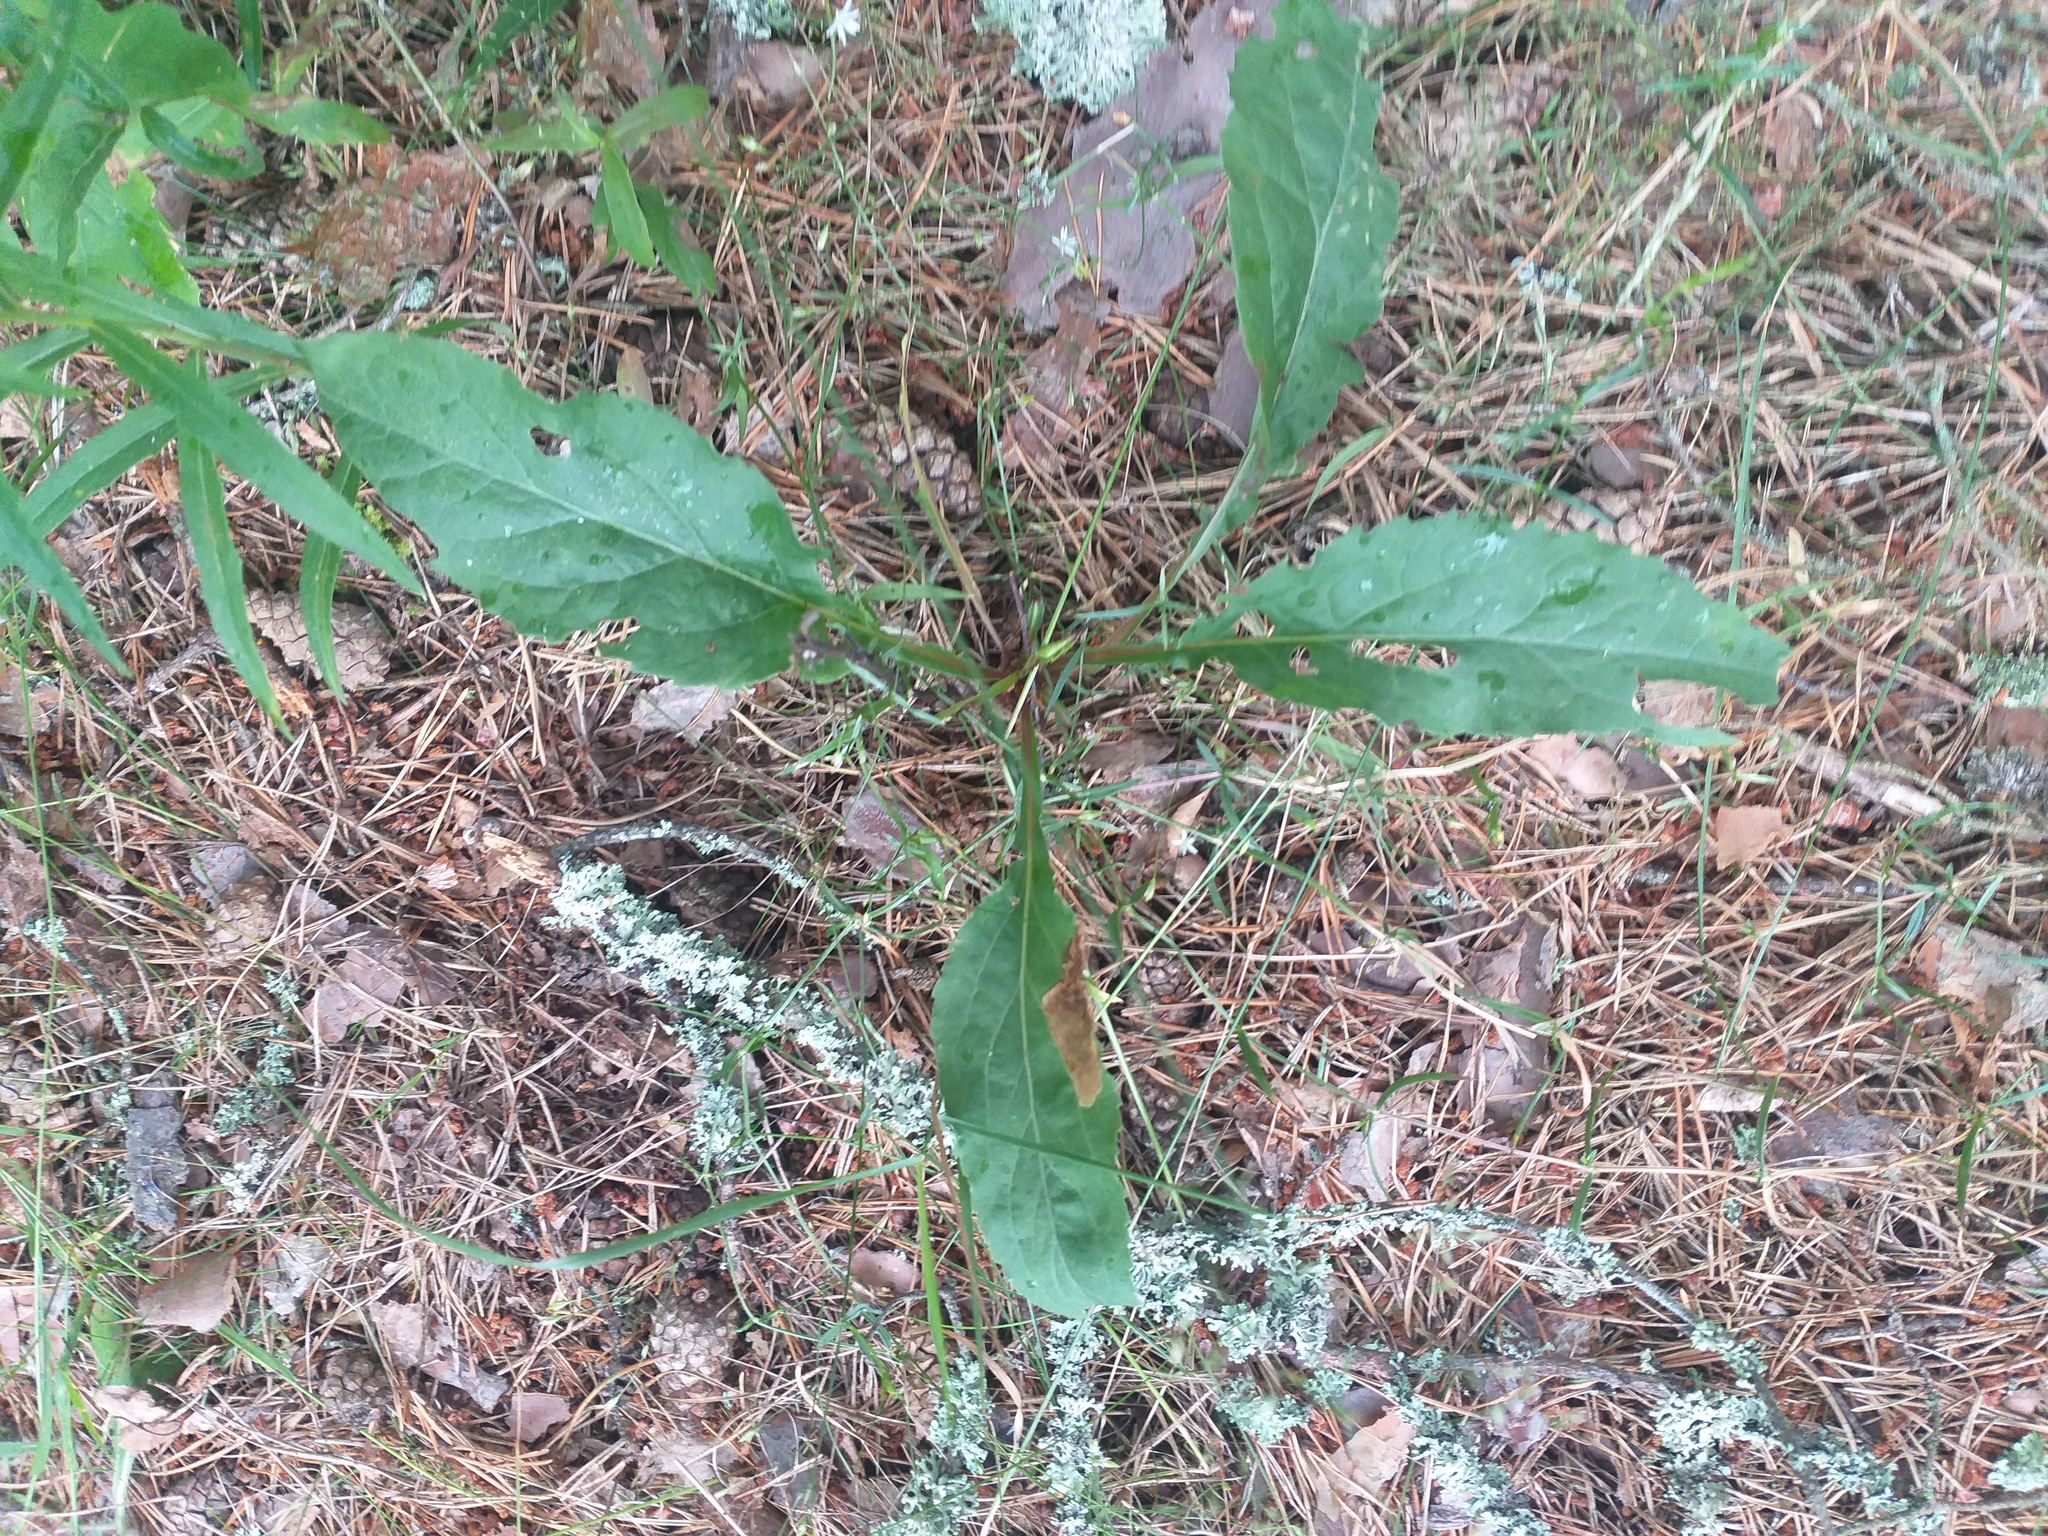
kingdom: Plantae
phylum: Tracheophyta
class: Magnoliopsida
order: Asterales
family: Asteraceae
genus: Solidago
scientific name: Solidago virgaurea
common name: Goldenrod
